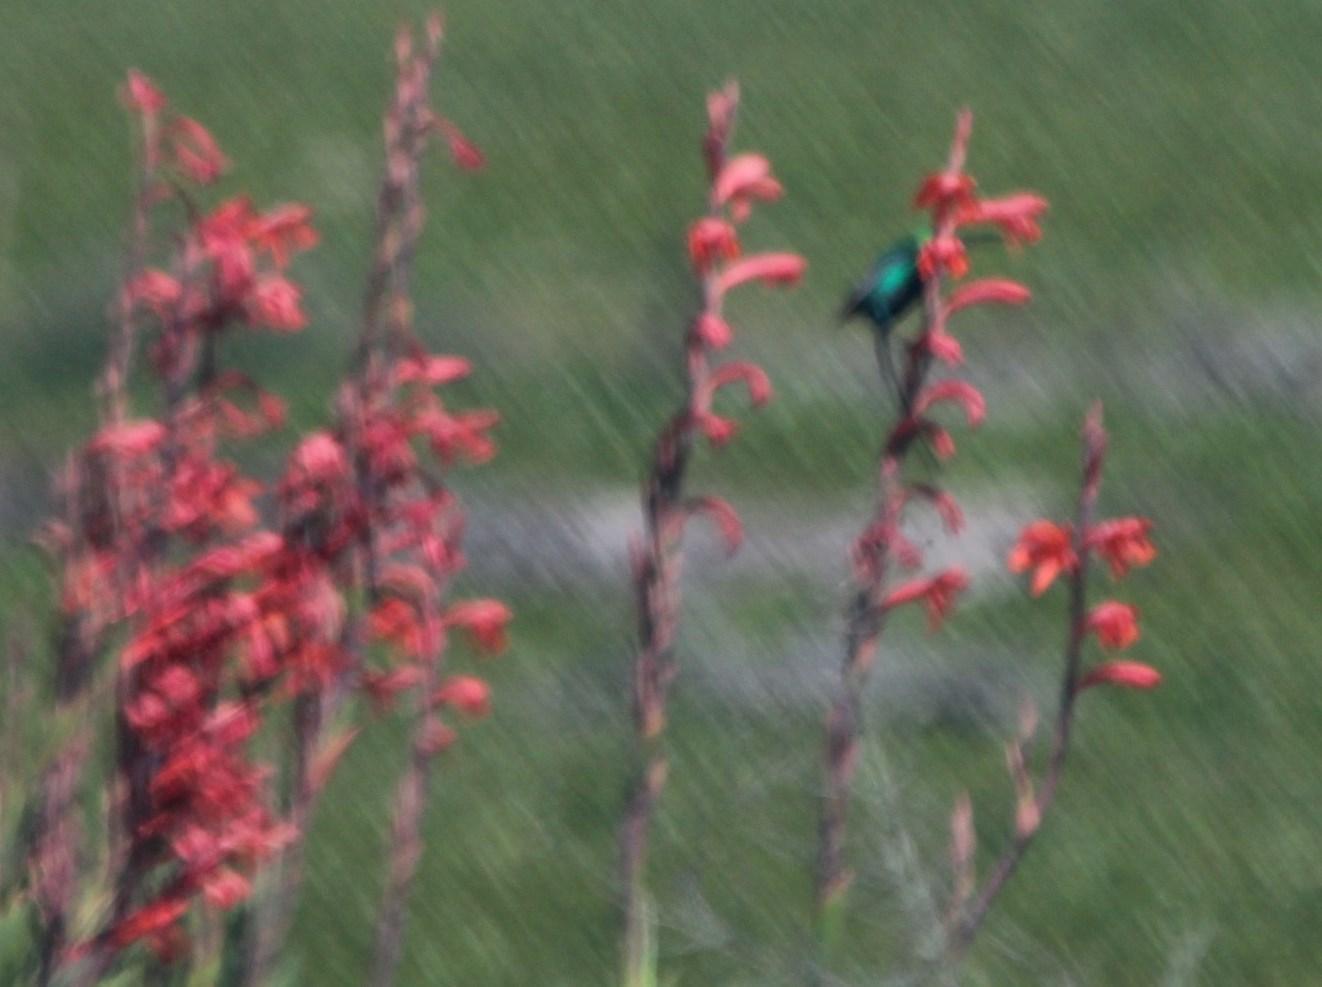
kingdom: Animalia
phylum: Chordata
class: Aves
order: Passeriformes
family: Nectariniidae
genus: Nectarinia
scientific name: Nectarinia famosa
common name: Malachite sunbird
